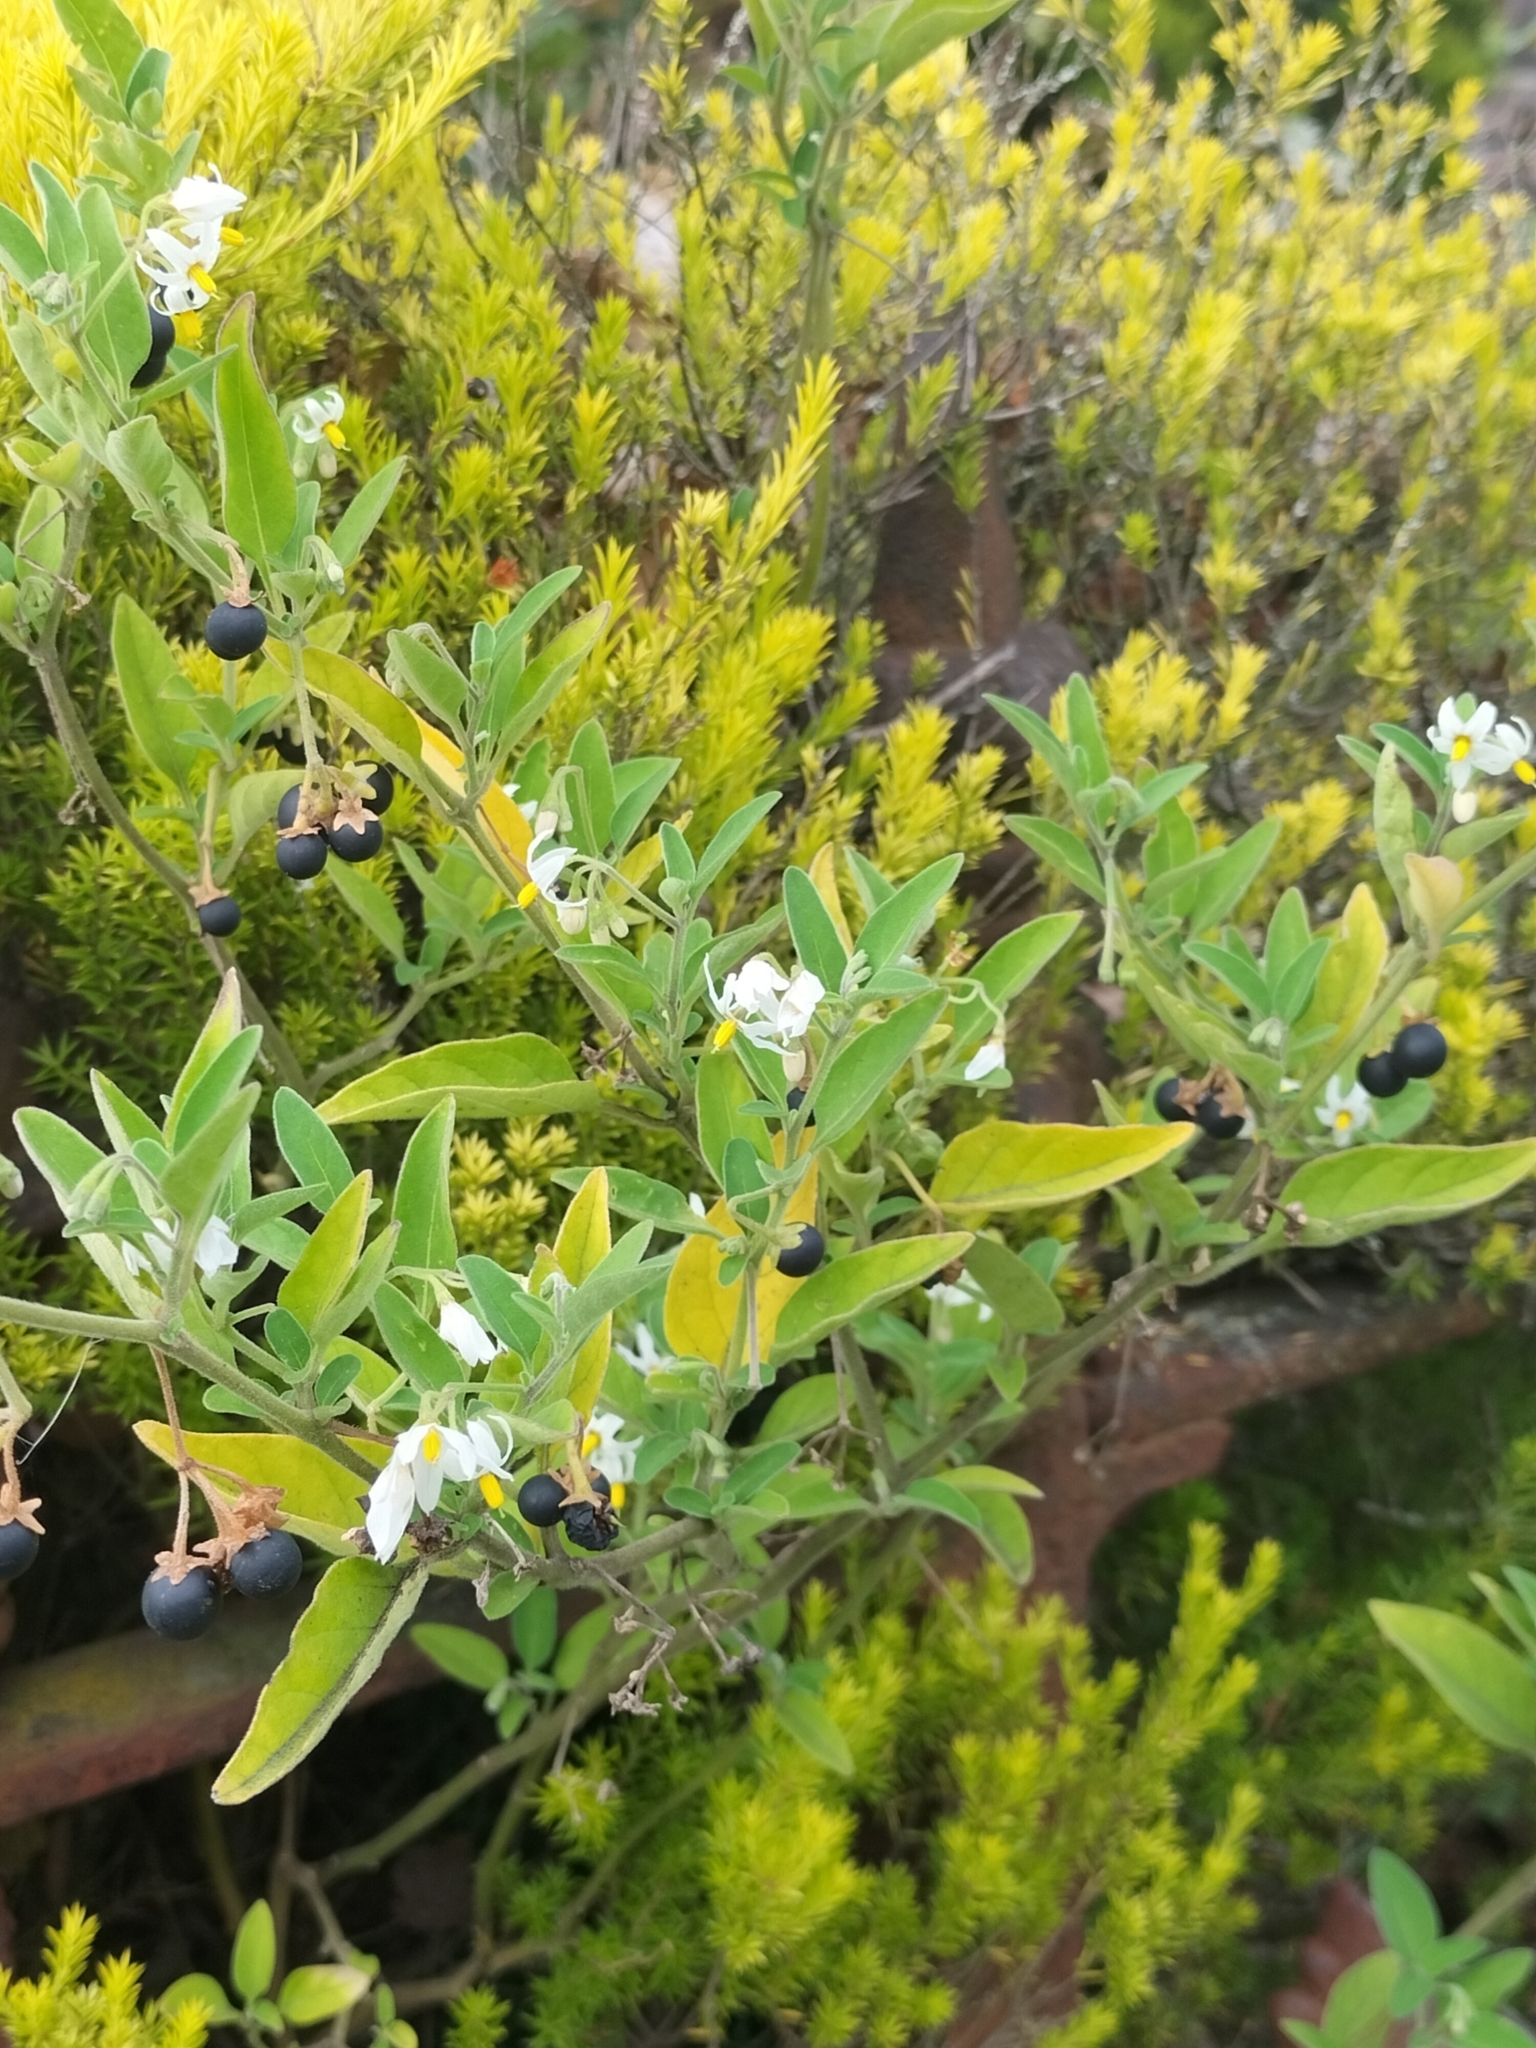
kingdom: Plantae
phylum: Tracheophyta
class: Magnoliopsida
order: Solanales
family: Solanaceae
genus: Solanum
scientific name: Solanum chenopodioides
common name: Tall nightshade
